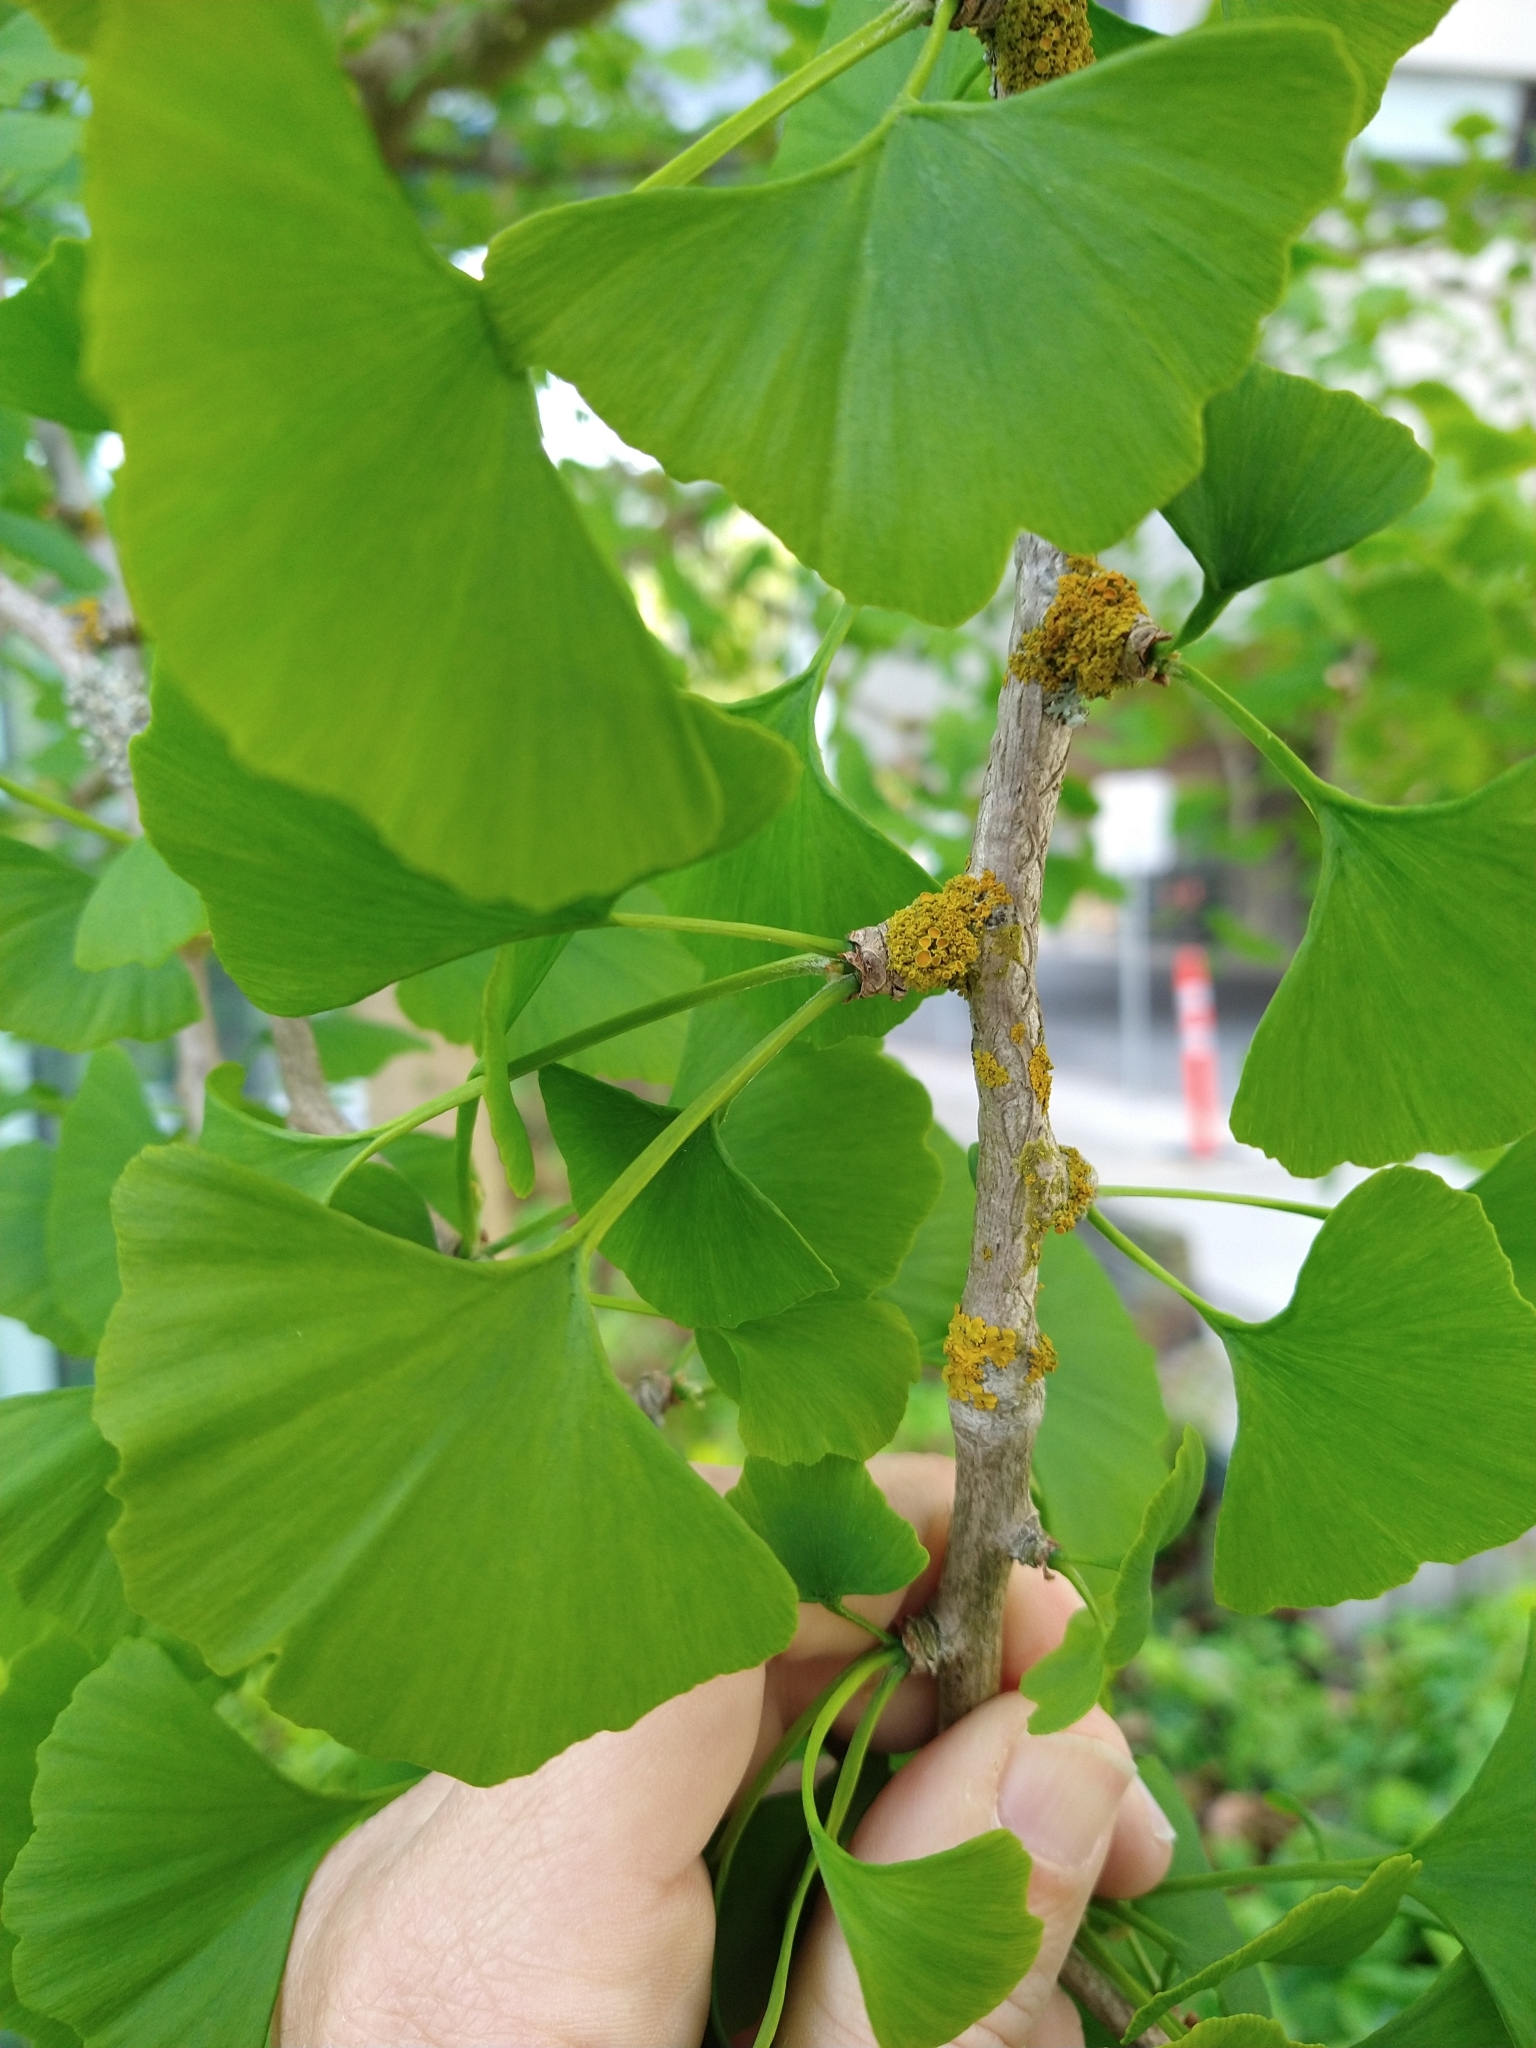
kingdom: Fungi
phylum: Ascomycota
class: Lecanoromycetes
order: Teloschistales
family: Teloschistaceae
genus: Polycauliona
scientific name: Polycauliona polycarpa
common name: Pin-cushion sunburst lichen
